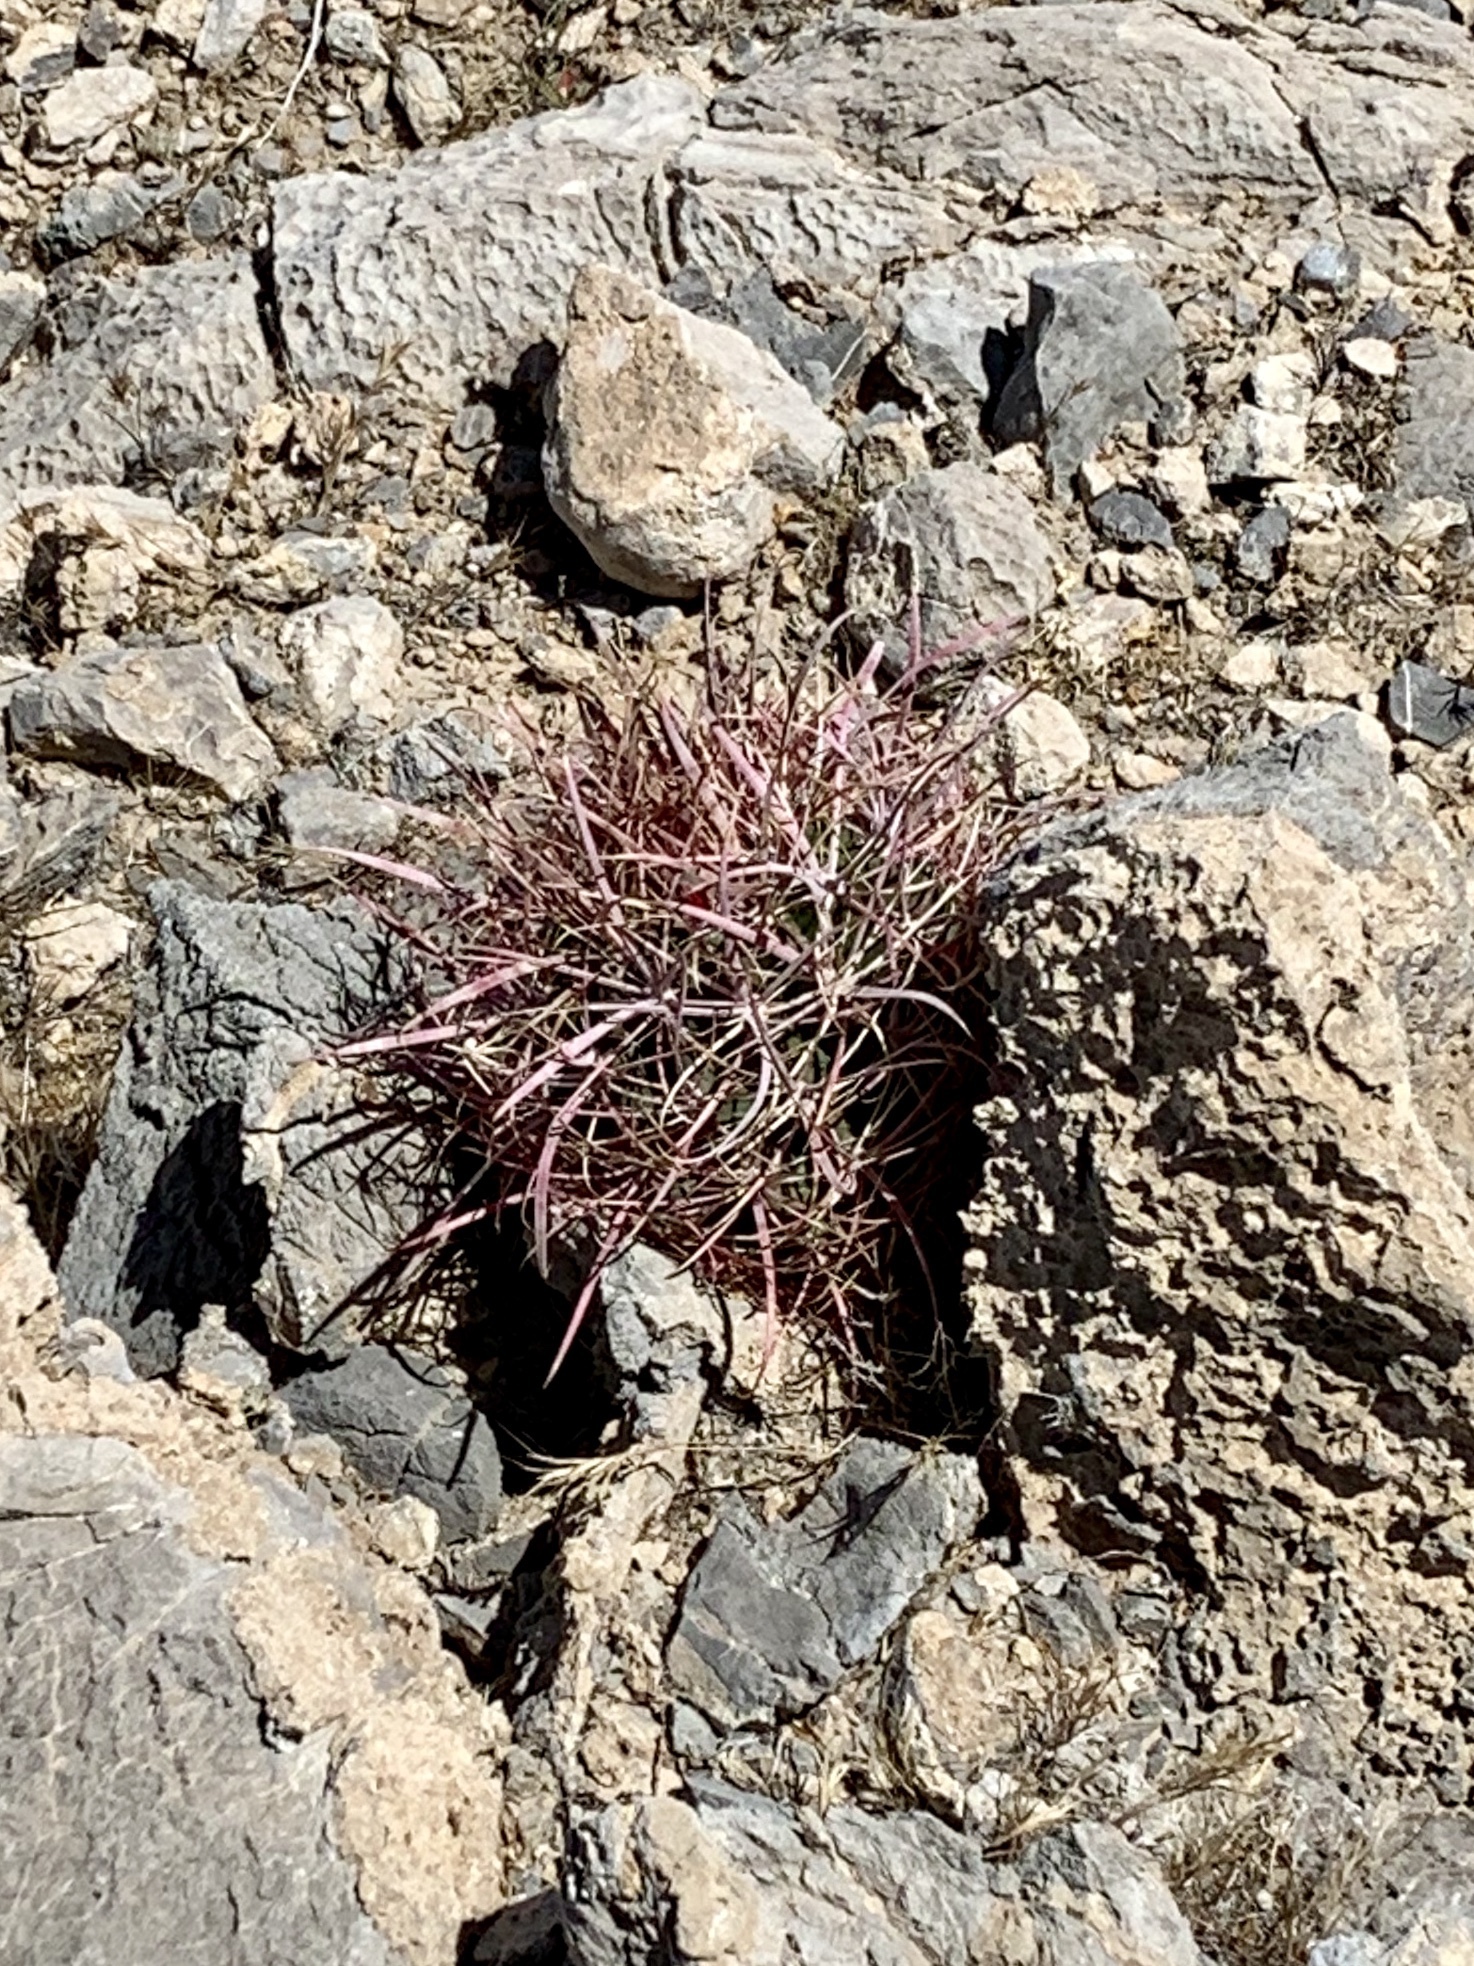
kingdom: Plantae
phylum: Tracheophyta
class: Magnoliopsida
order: Caryophyllales
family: Cactaceae
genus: Ferocactus
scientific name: Ferocactus cylindraceus
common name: California barrel cactus
